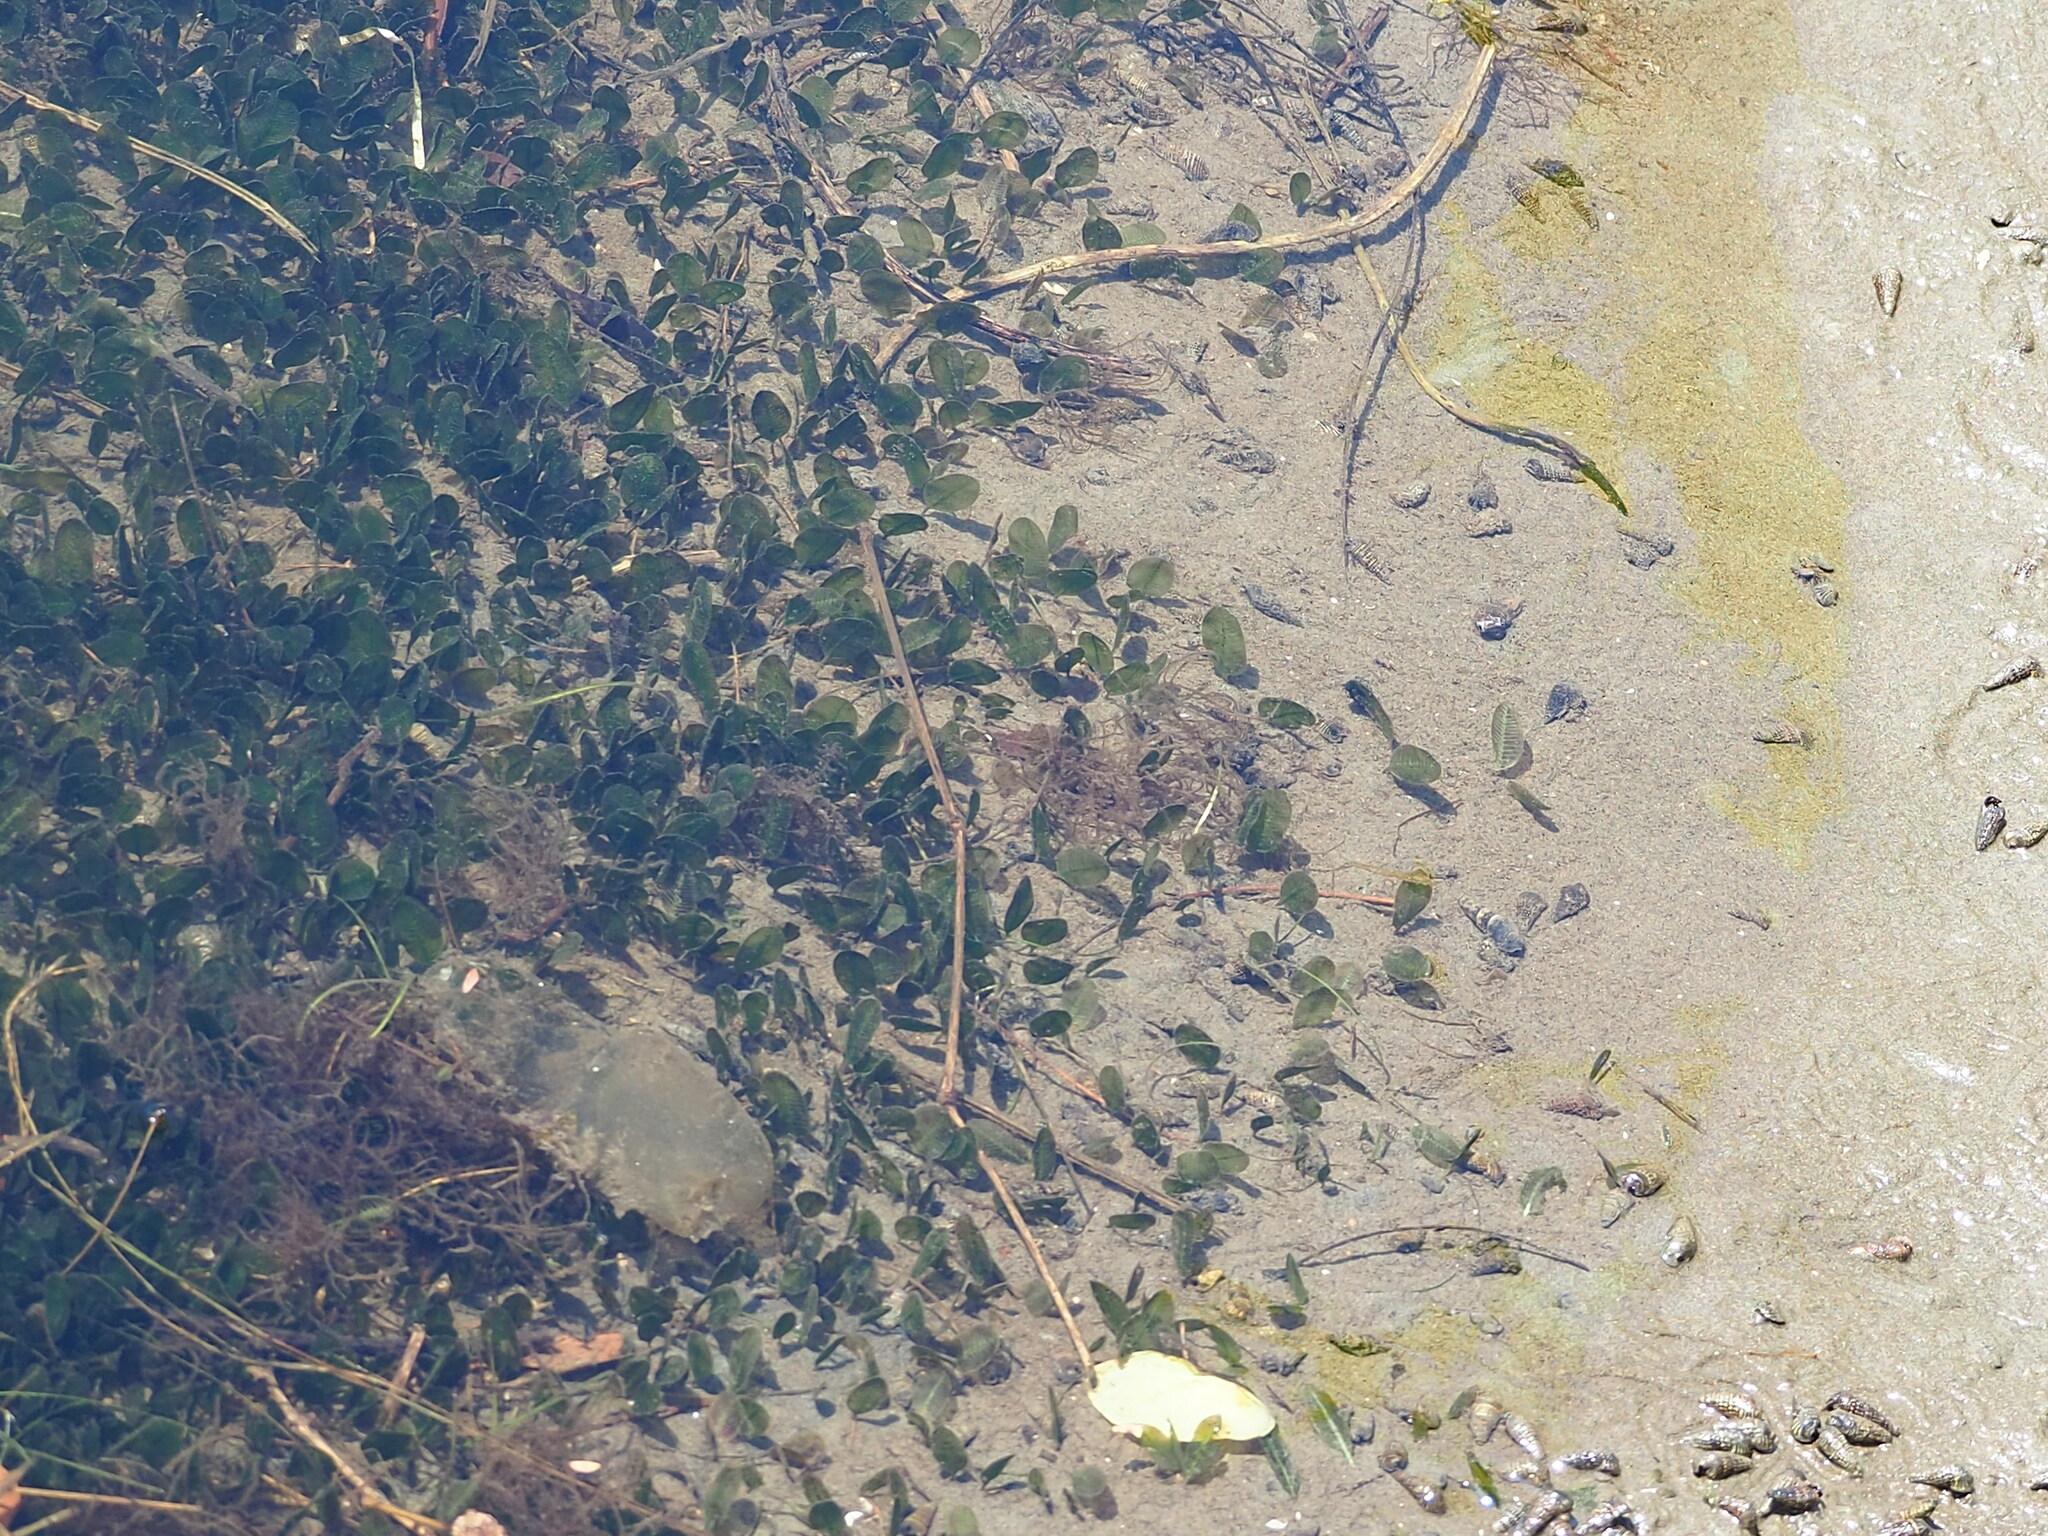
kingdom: Plantae
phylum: Tracheophyta
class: Liliopsida
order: Alismatales
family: Hydrocharitaceae
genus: Halophila
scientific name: Halophila ovalis
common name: Species code: ho
